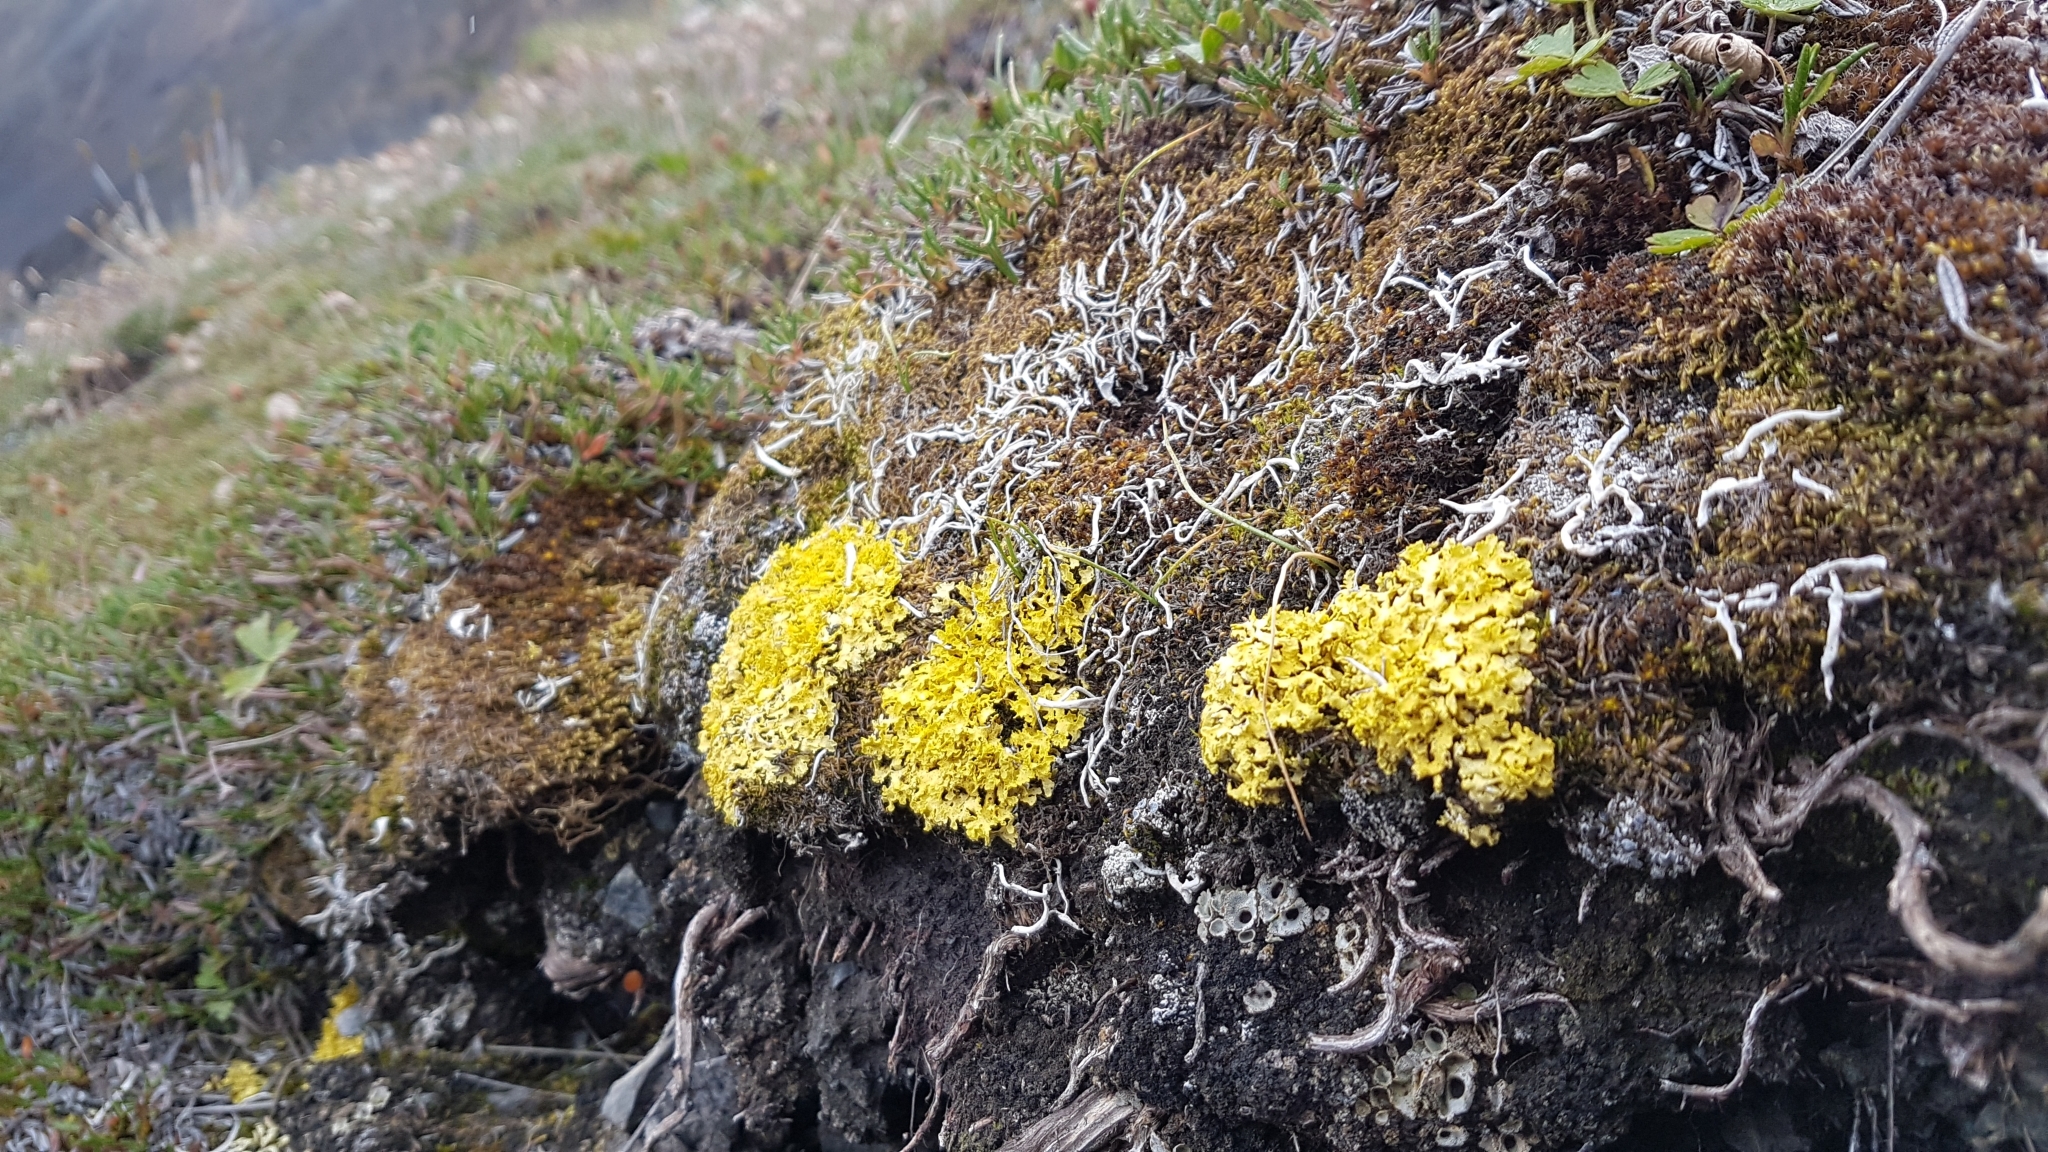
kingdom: Fungi
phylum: Ascomycota
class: Lecanoromycetes
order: Lecanorales
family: Parmeliaceae
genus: Vulpicida
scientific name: Vulpicida juniperinus
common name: Yellow lichen
